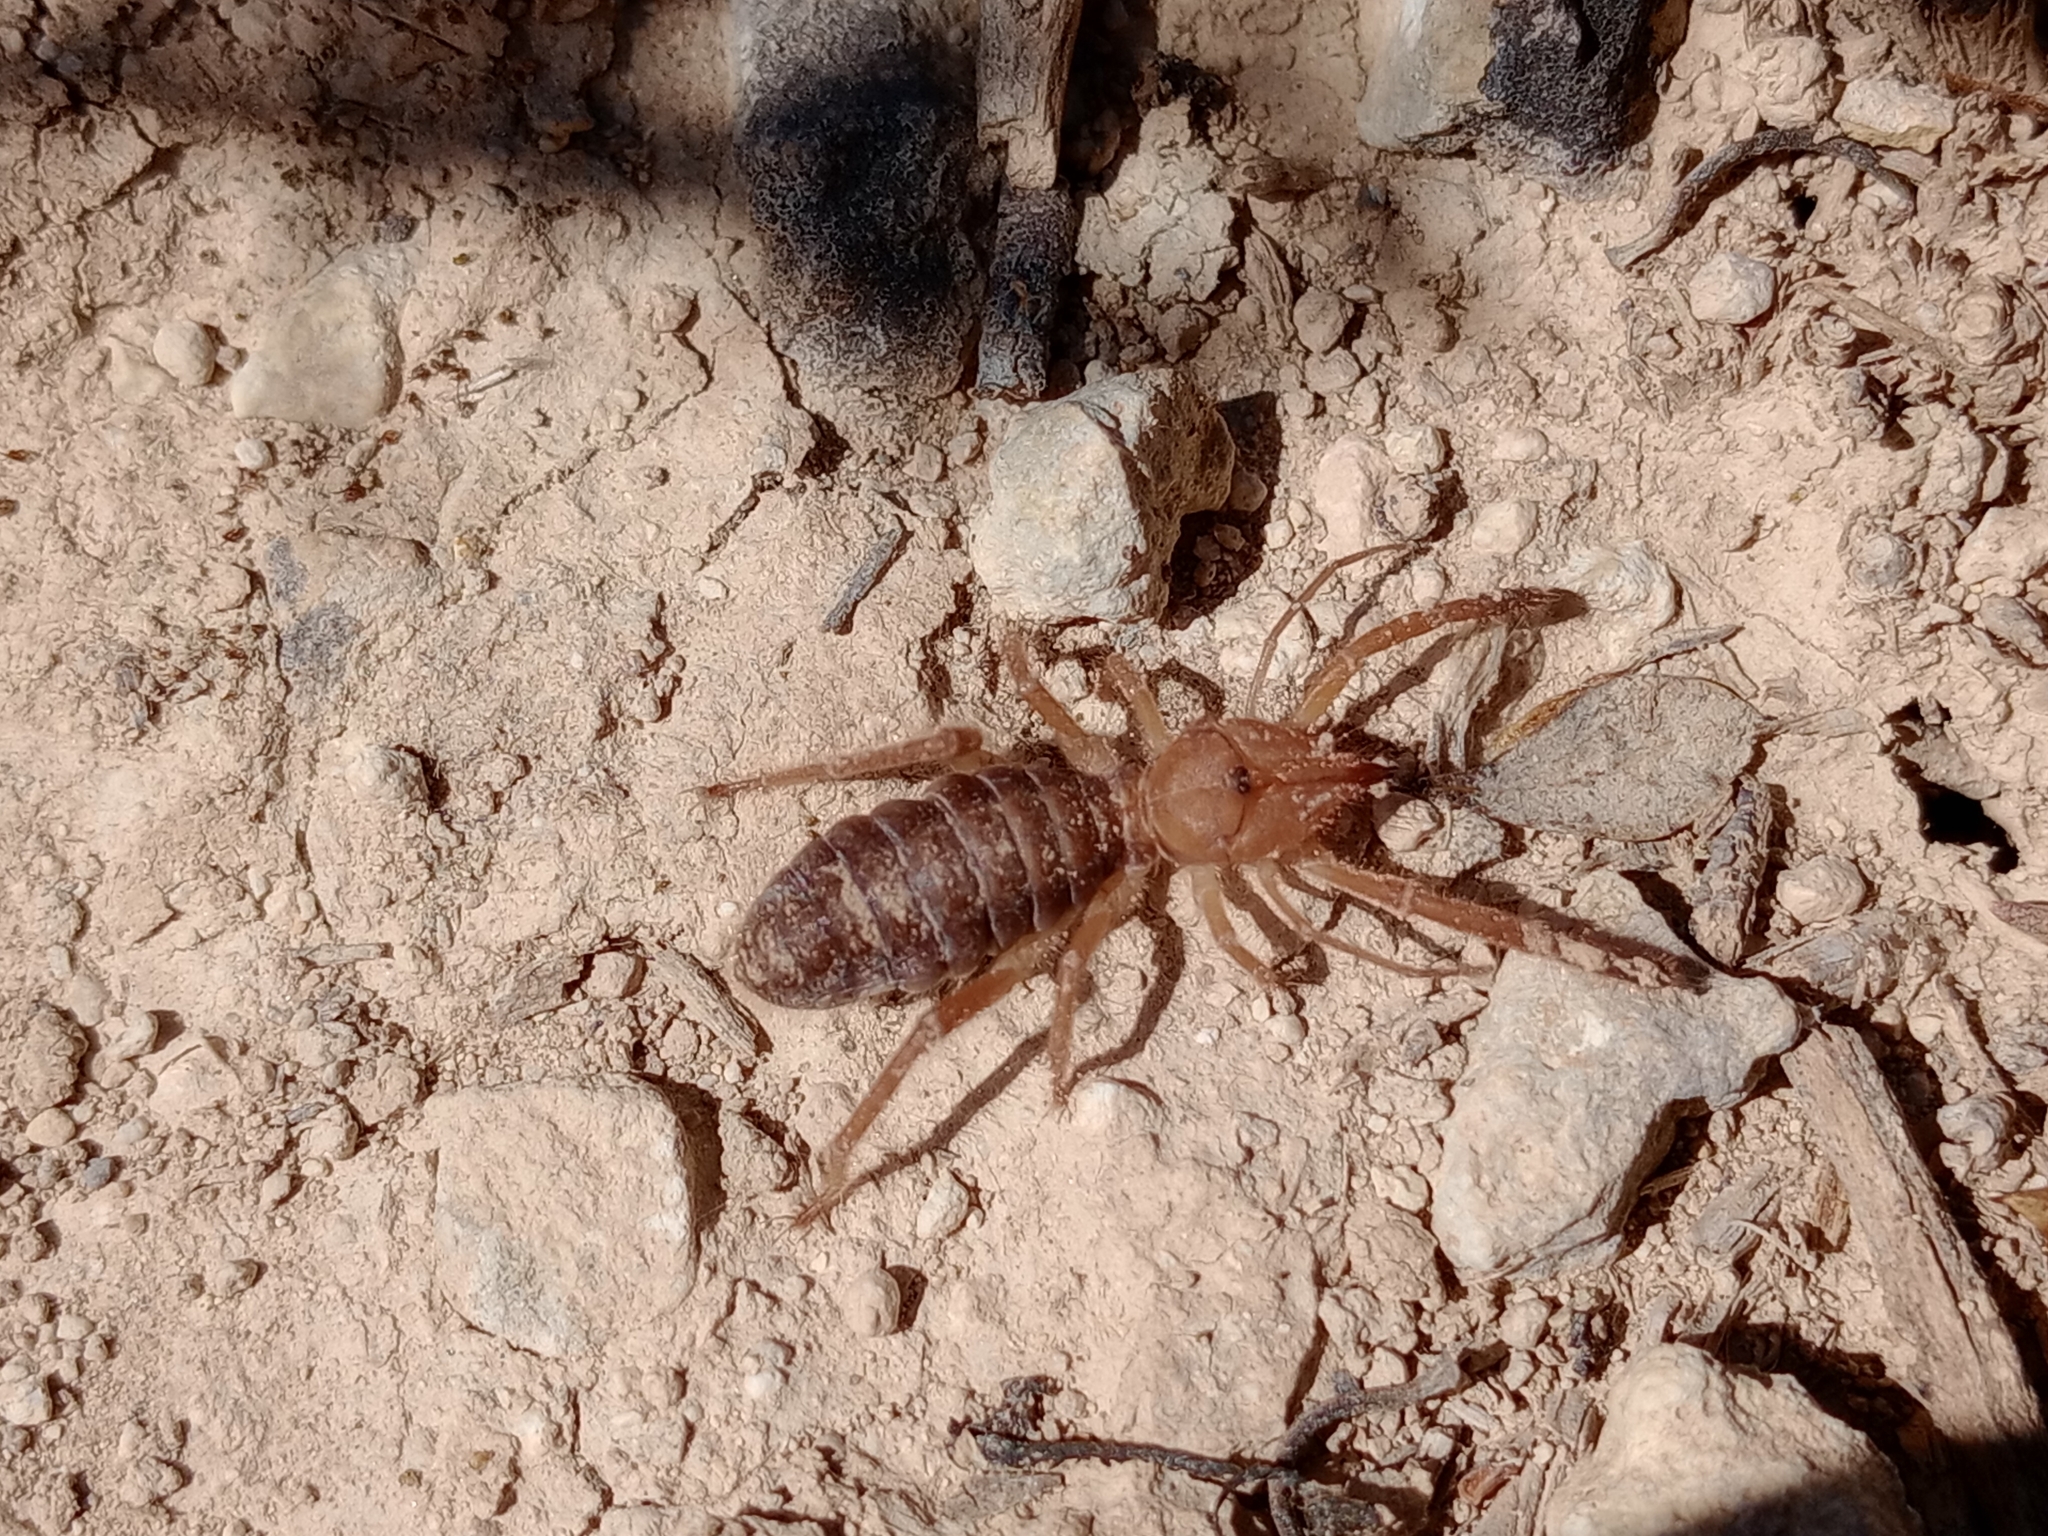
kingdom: Animalia
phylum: Arthropoda
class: Arachnida
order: Solifugae
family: Daesiidae
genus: Gluvia
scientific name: Gluvia dorsalis
